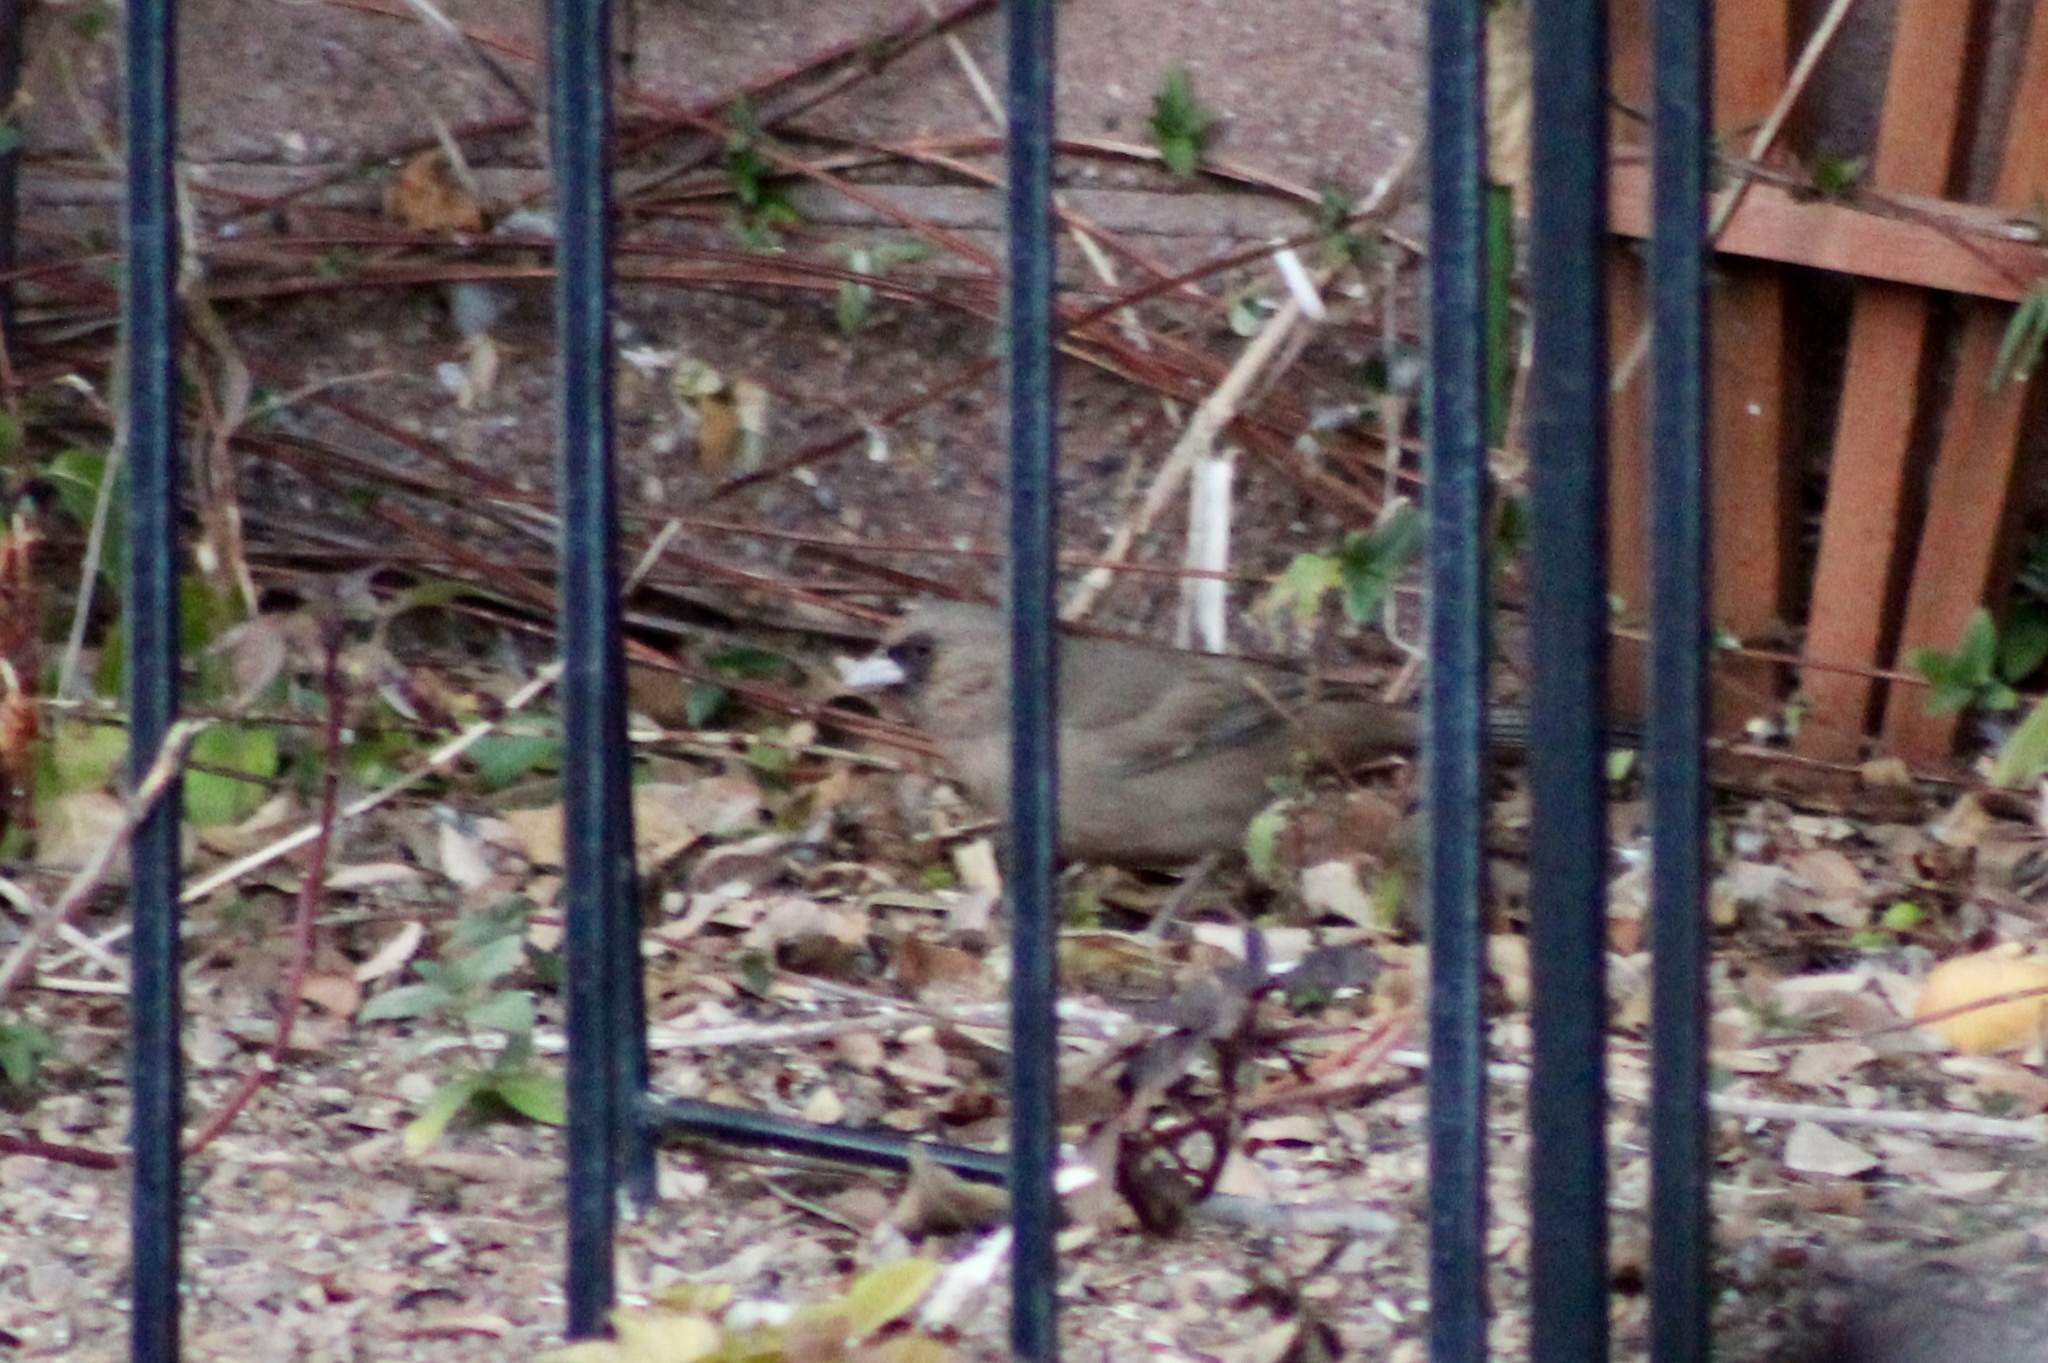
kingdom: Animalia
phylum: Chordata
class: Aves
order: Passeriformes
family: Passerellidae
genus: Melozone
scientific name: Melozone aberti
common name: Abert's towhee
